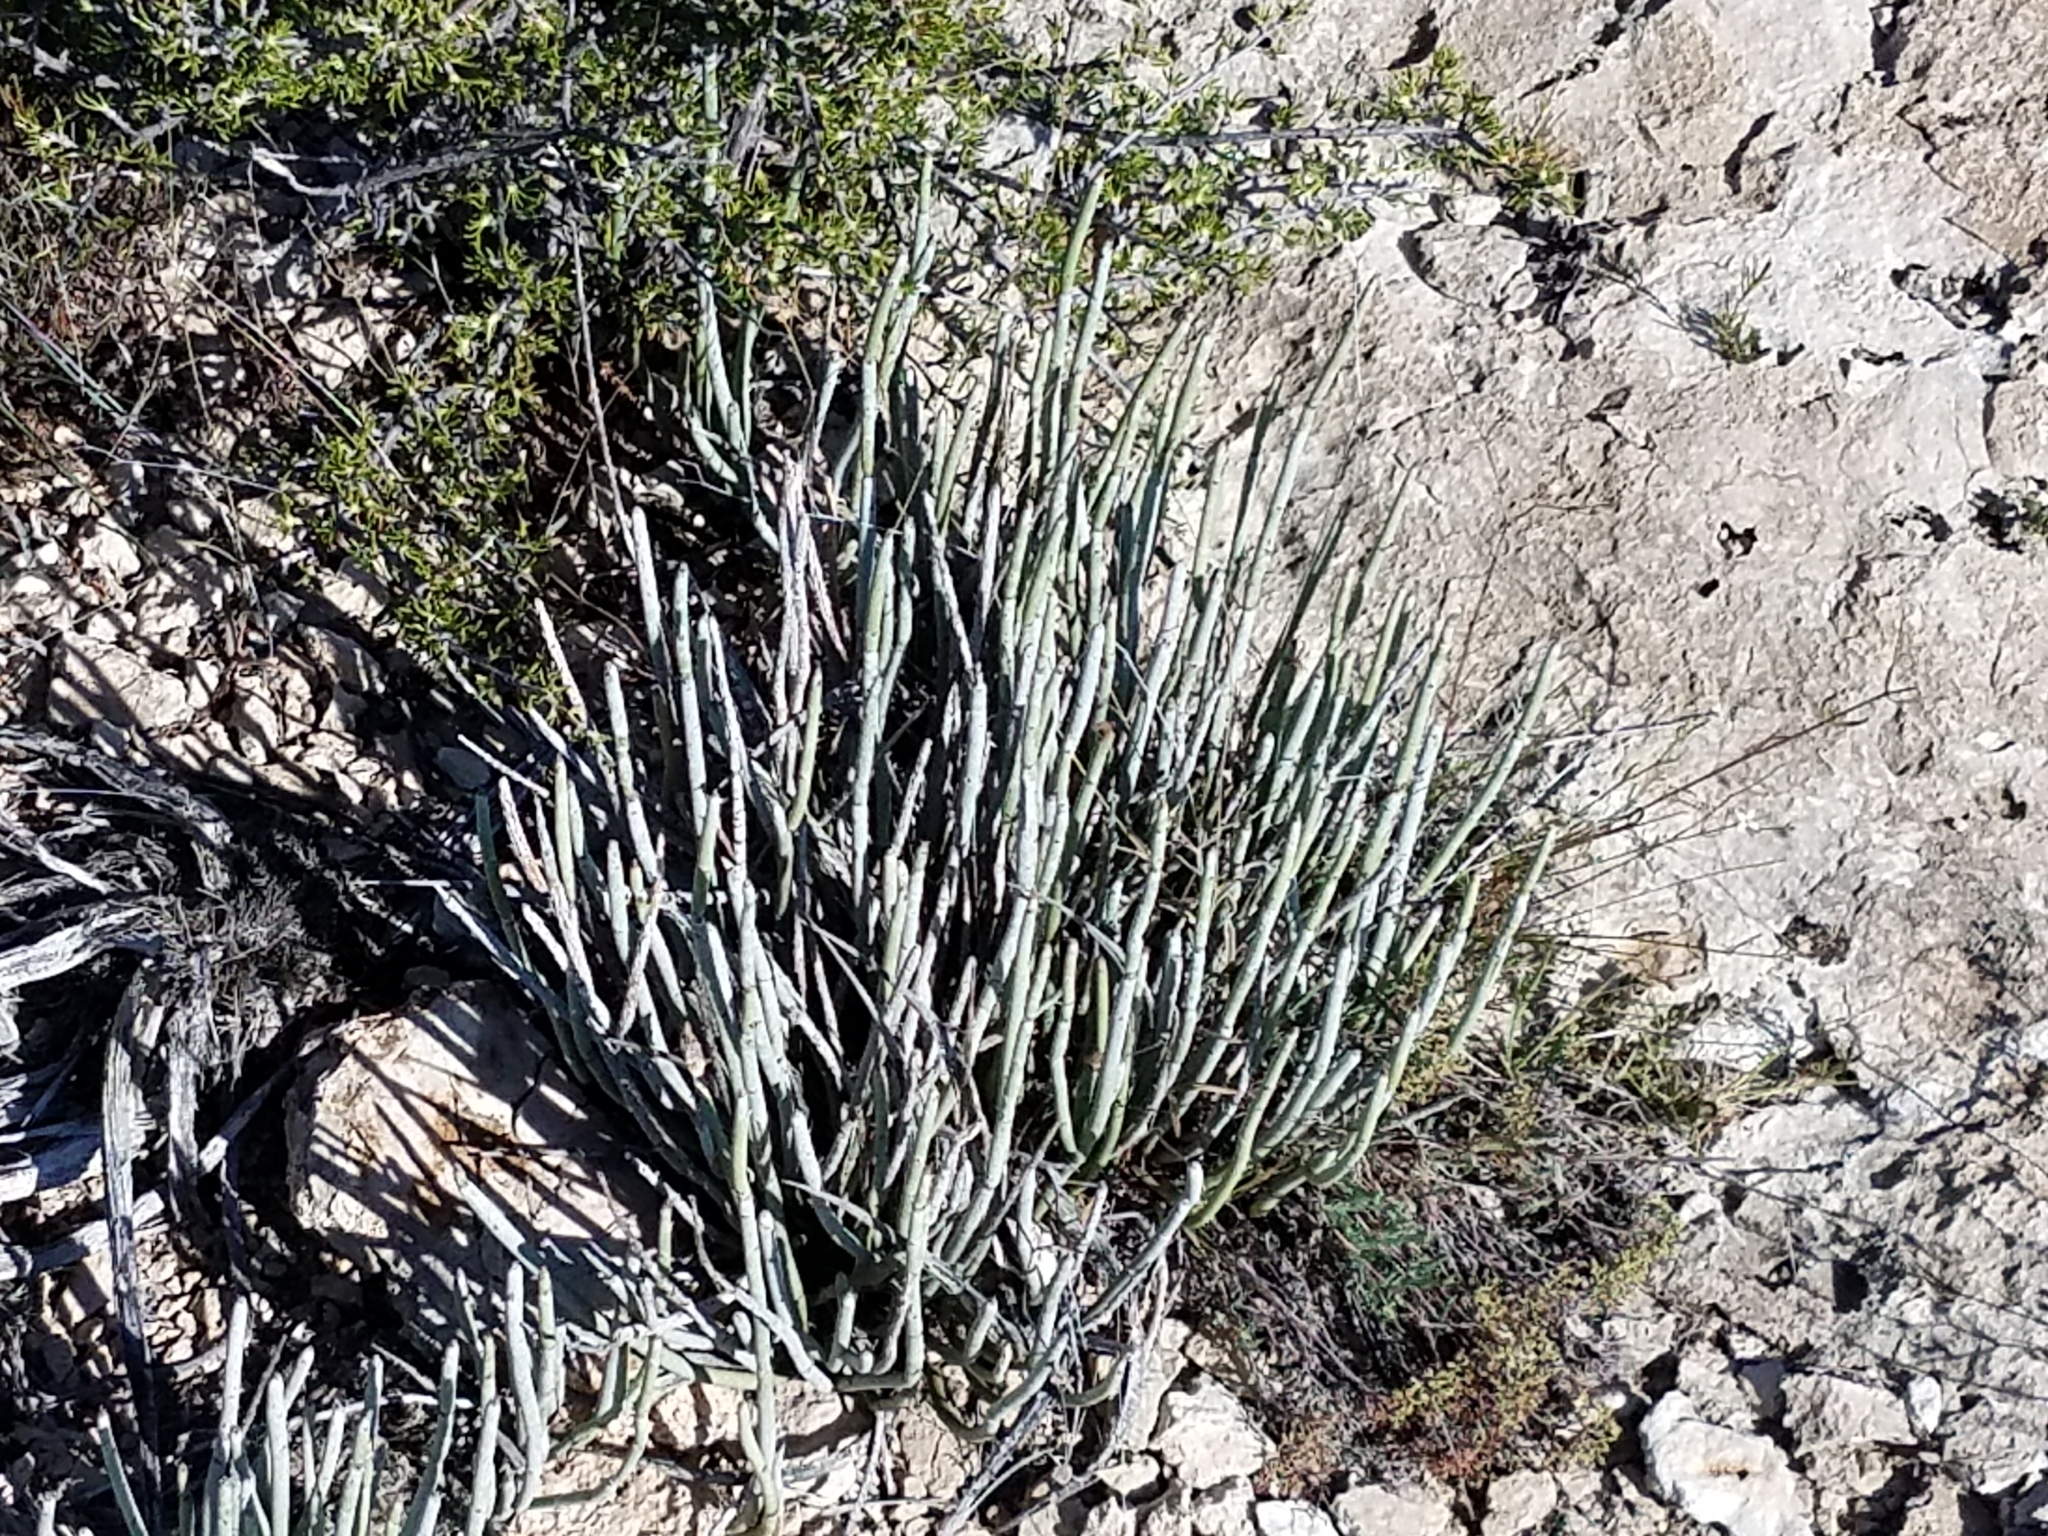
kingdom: Plantae
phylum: Tracheophyta
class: Magnoliopsida
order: Malpighiales
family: Euphorbiaceae
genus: Euphorbia
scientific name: Euphorbia antisyphilitica
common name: Candelilla
